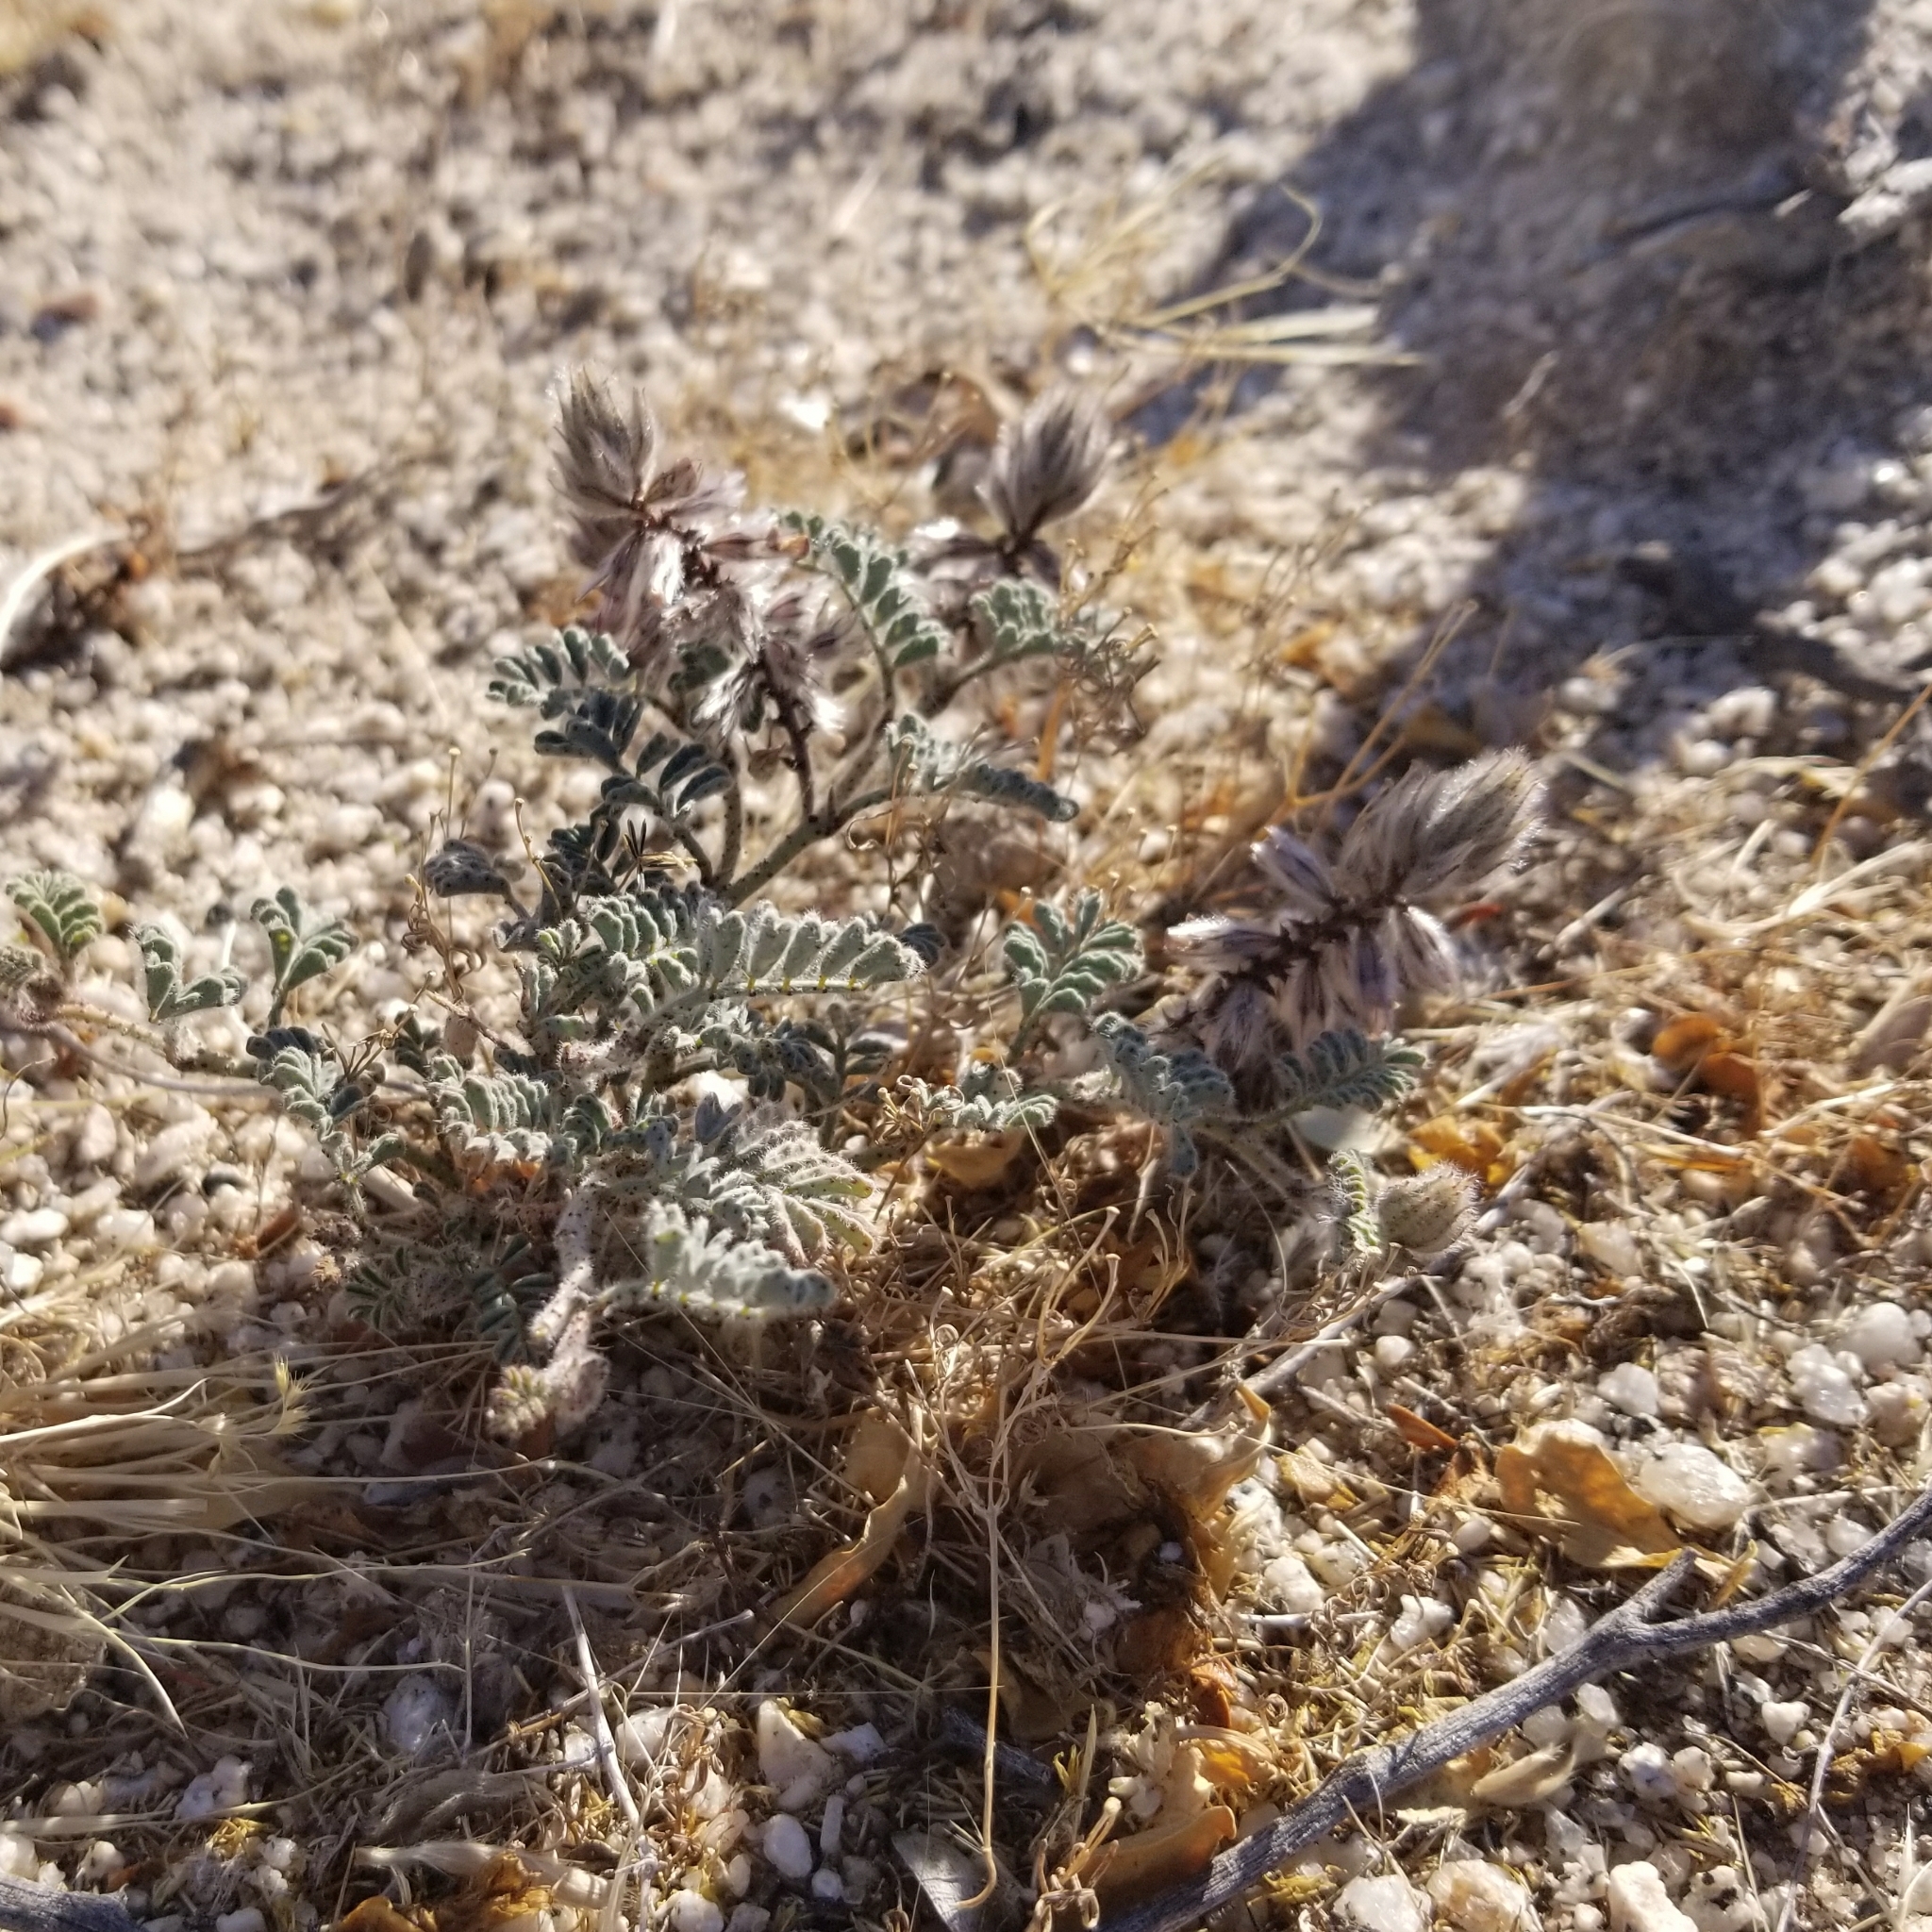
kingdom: Plantae
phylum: Tracheophyta
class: Magnoliopsida
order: Fabales
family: Fabaceae
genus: Dalea
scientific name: Dalea mollissima
